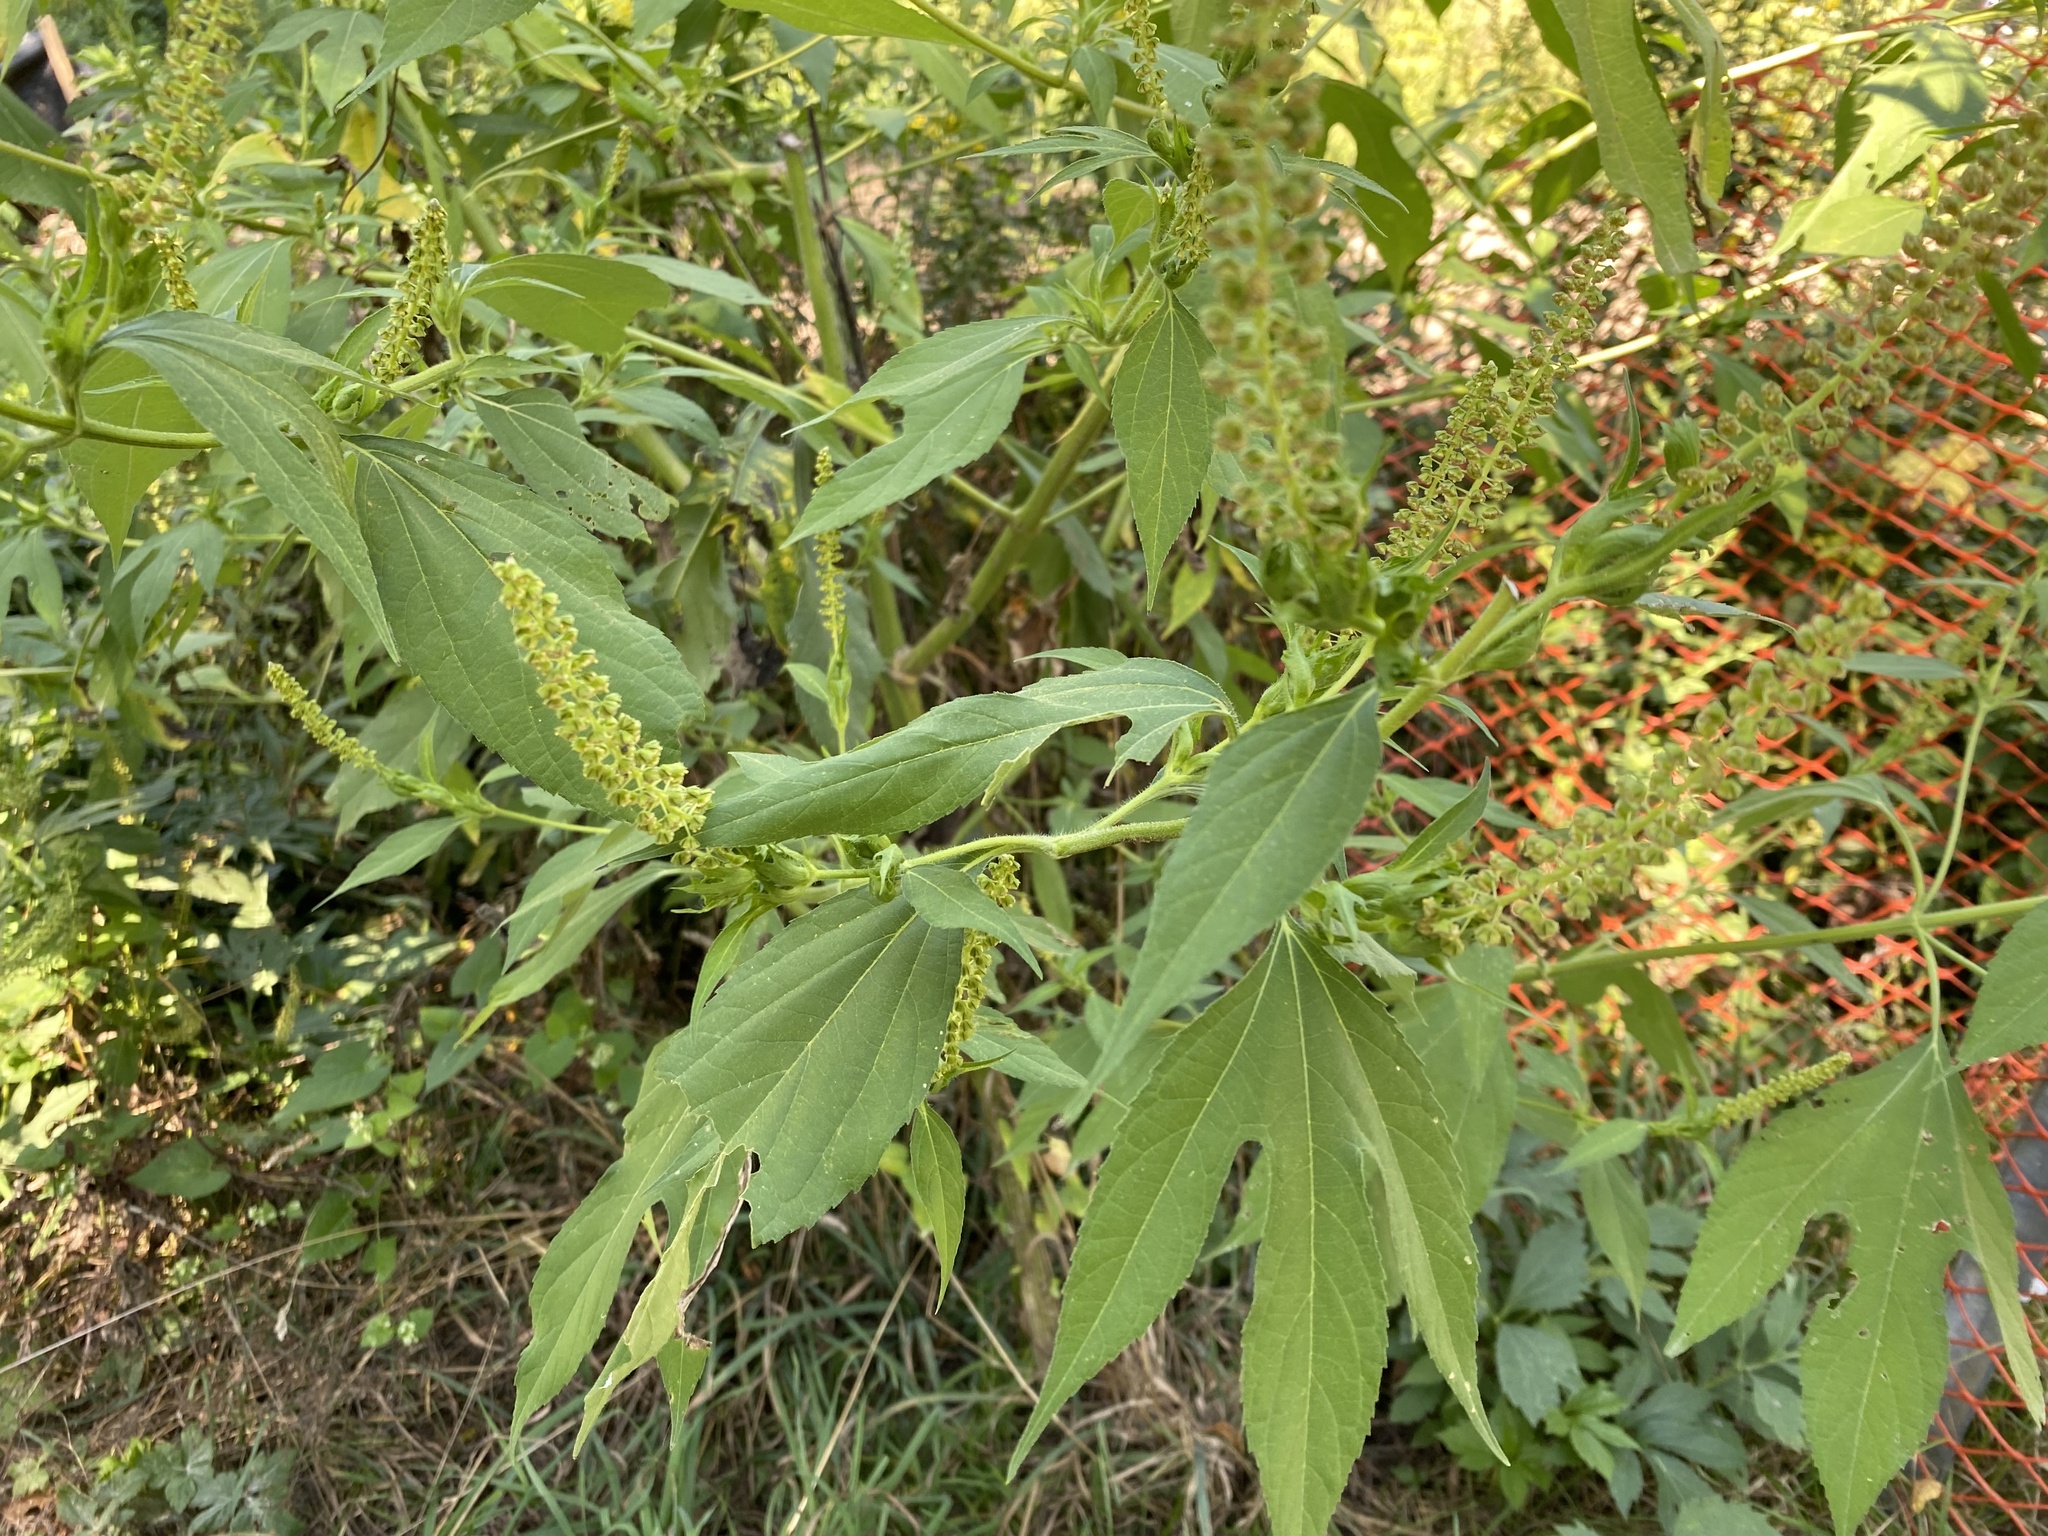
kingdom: Plantae
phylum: Tracheophyta
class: Magnoliopsida
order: Asterales
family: Asteraceae
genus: Ambrosia
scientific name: Ambrosia trifida
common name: Giant ragweed
